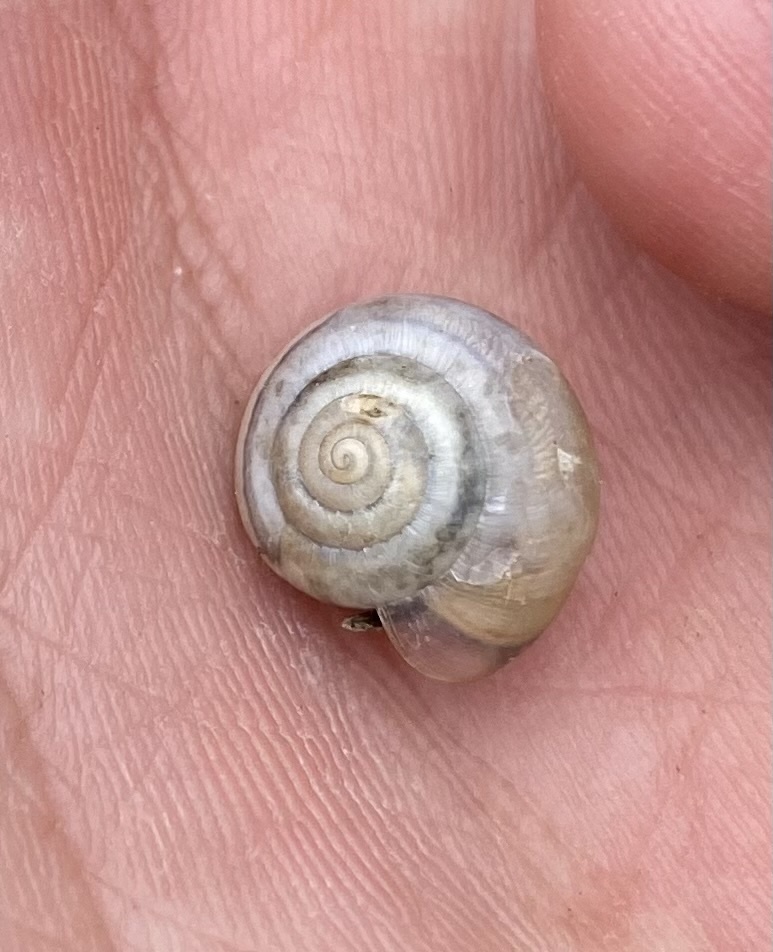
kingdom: Animalia
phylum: Mollusca
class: Gastropoda
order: Stylommatophora
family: Hygromiidae
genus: Monacha
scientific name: Monacha cartusiana
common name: Carthusian snail
